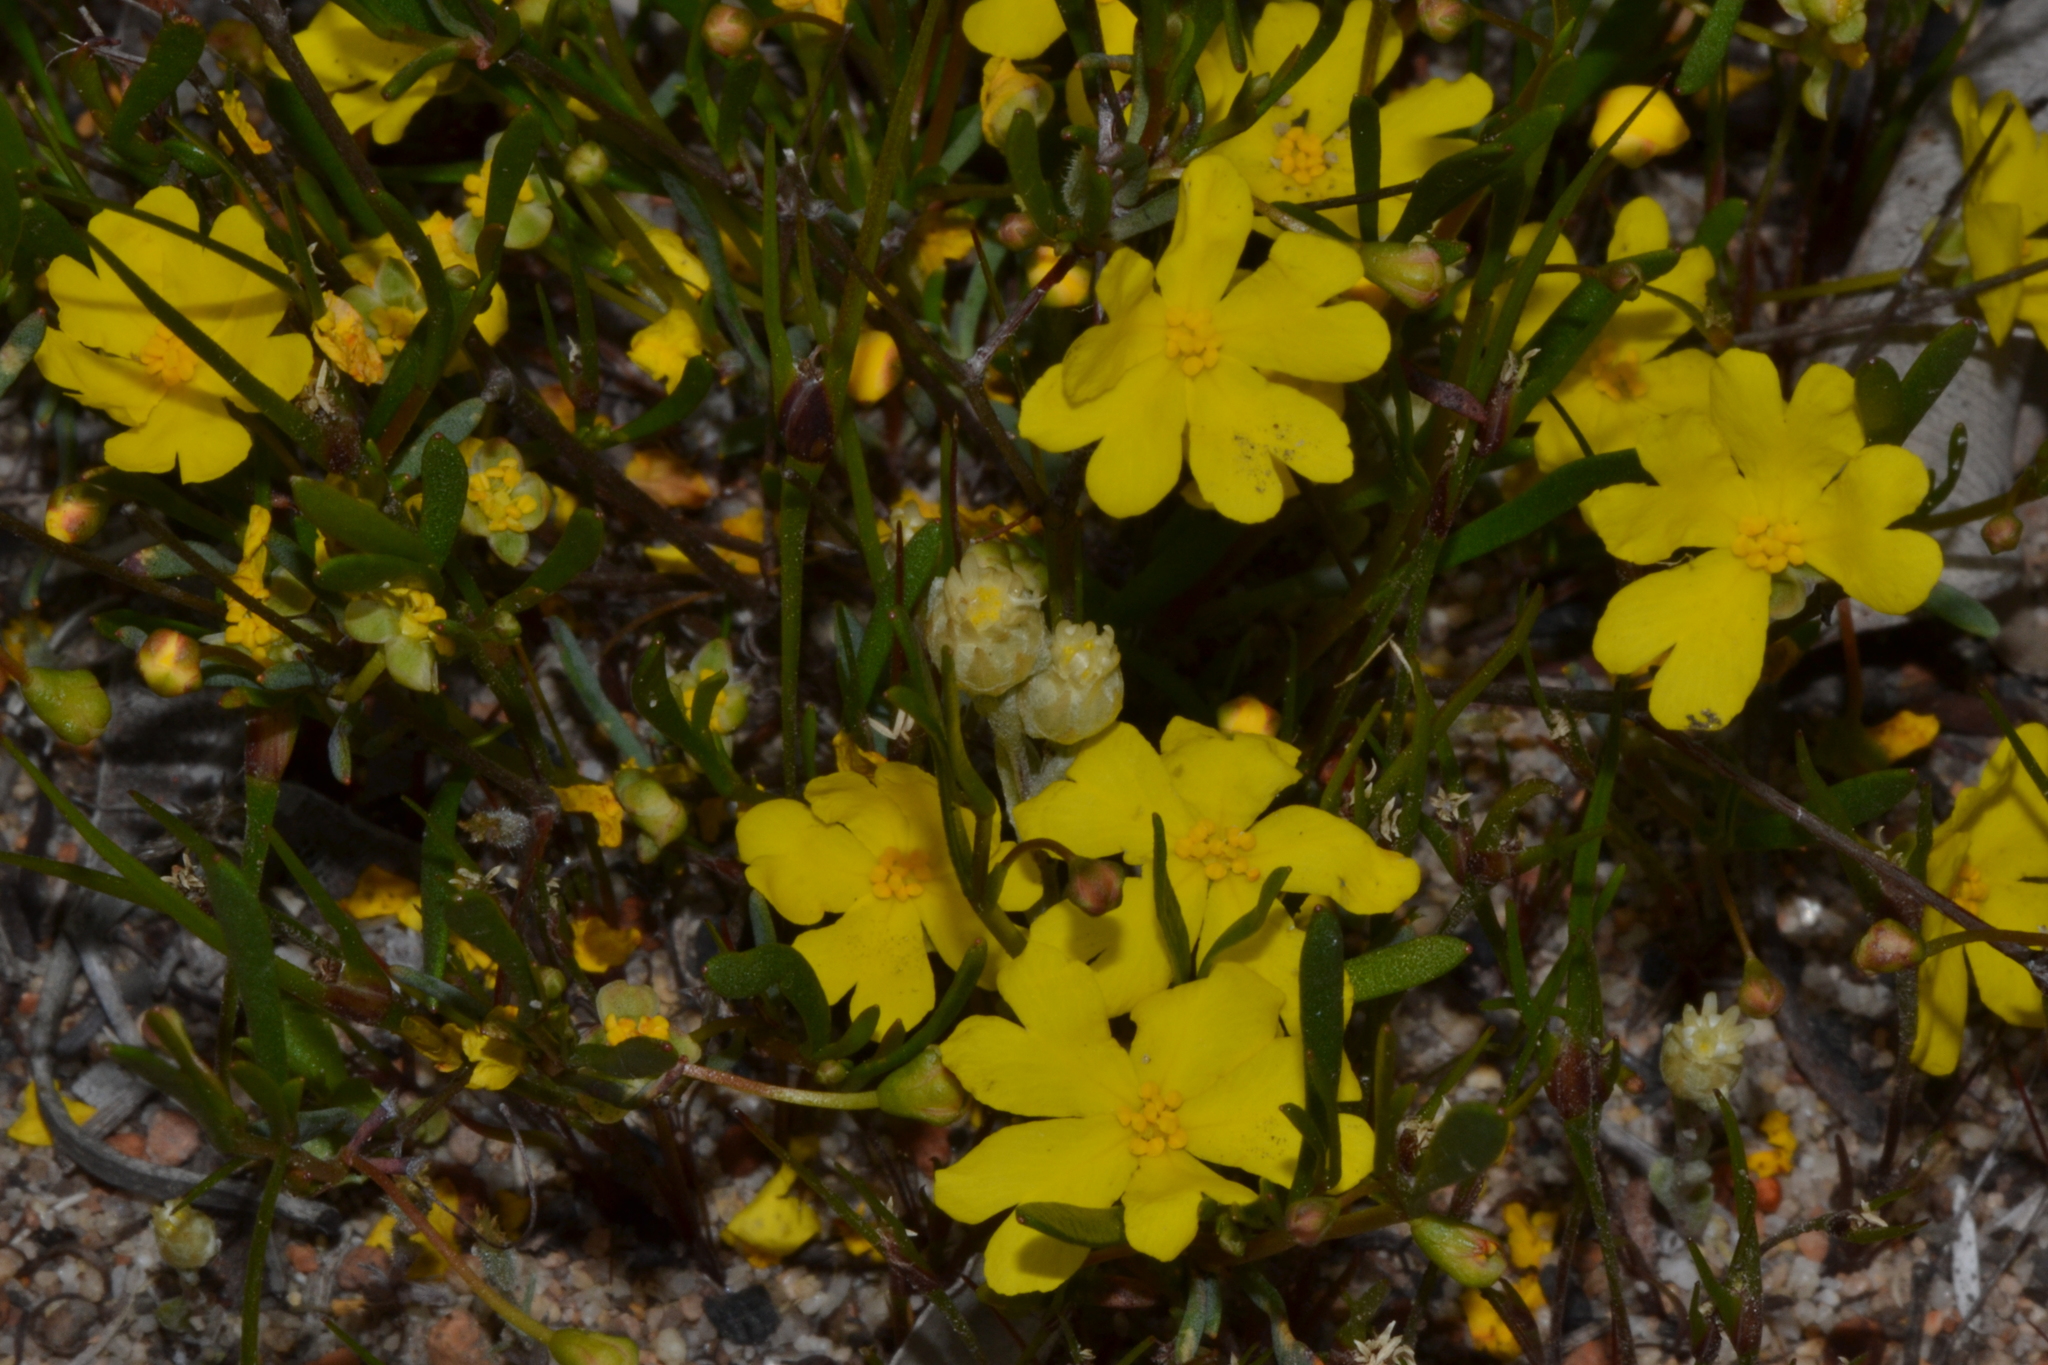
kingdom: Plantae
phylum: Tracheophyta
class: Magnoliopsida
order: Dilleniales
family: Dilleniaceae
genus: Hibbertia
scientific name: Hibbertia stellaris
